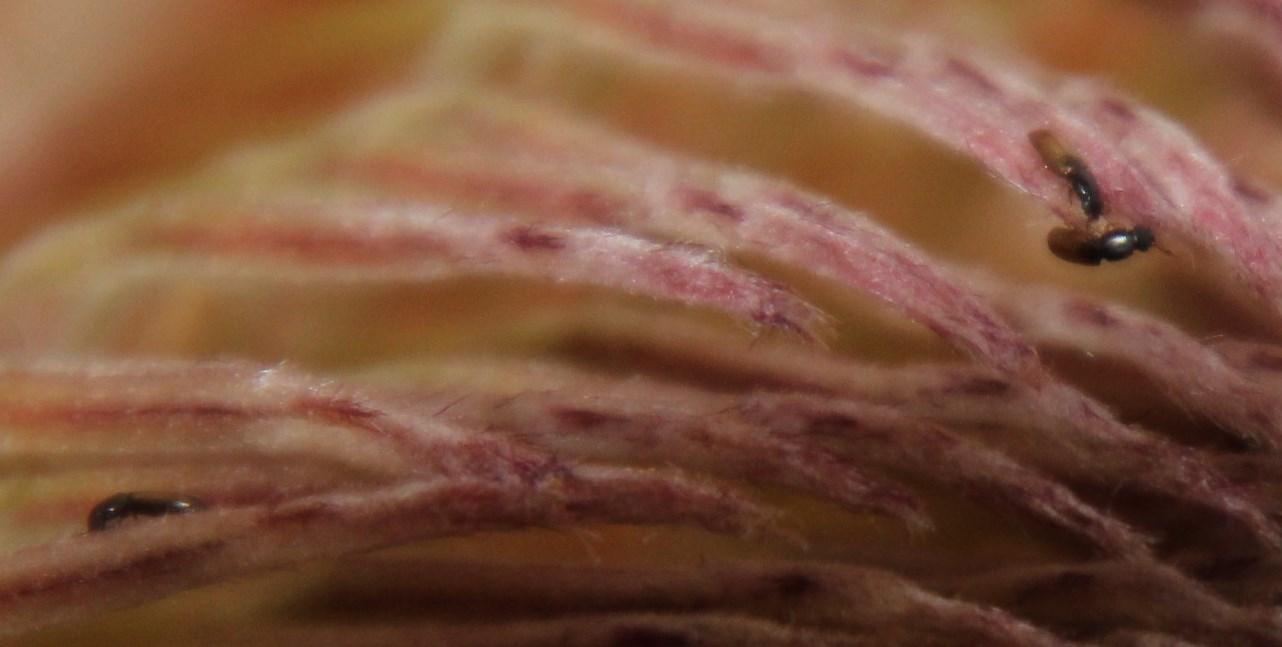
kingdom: Plantae
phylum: Tracheophyta
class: Magnoliopsida
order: Proteales
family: Proteaceae
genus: Protea
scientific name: Protea eximia
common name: Broad-leaved sugarbush
